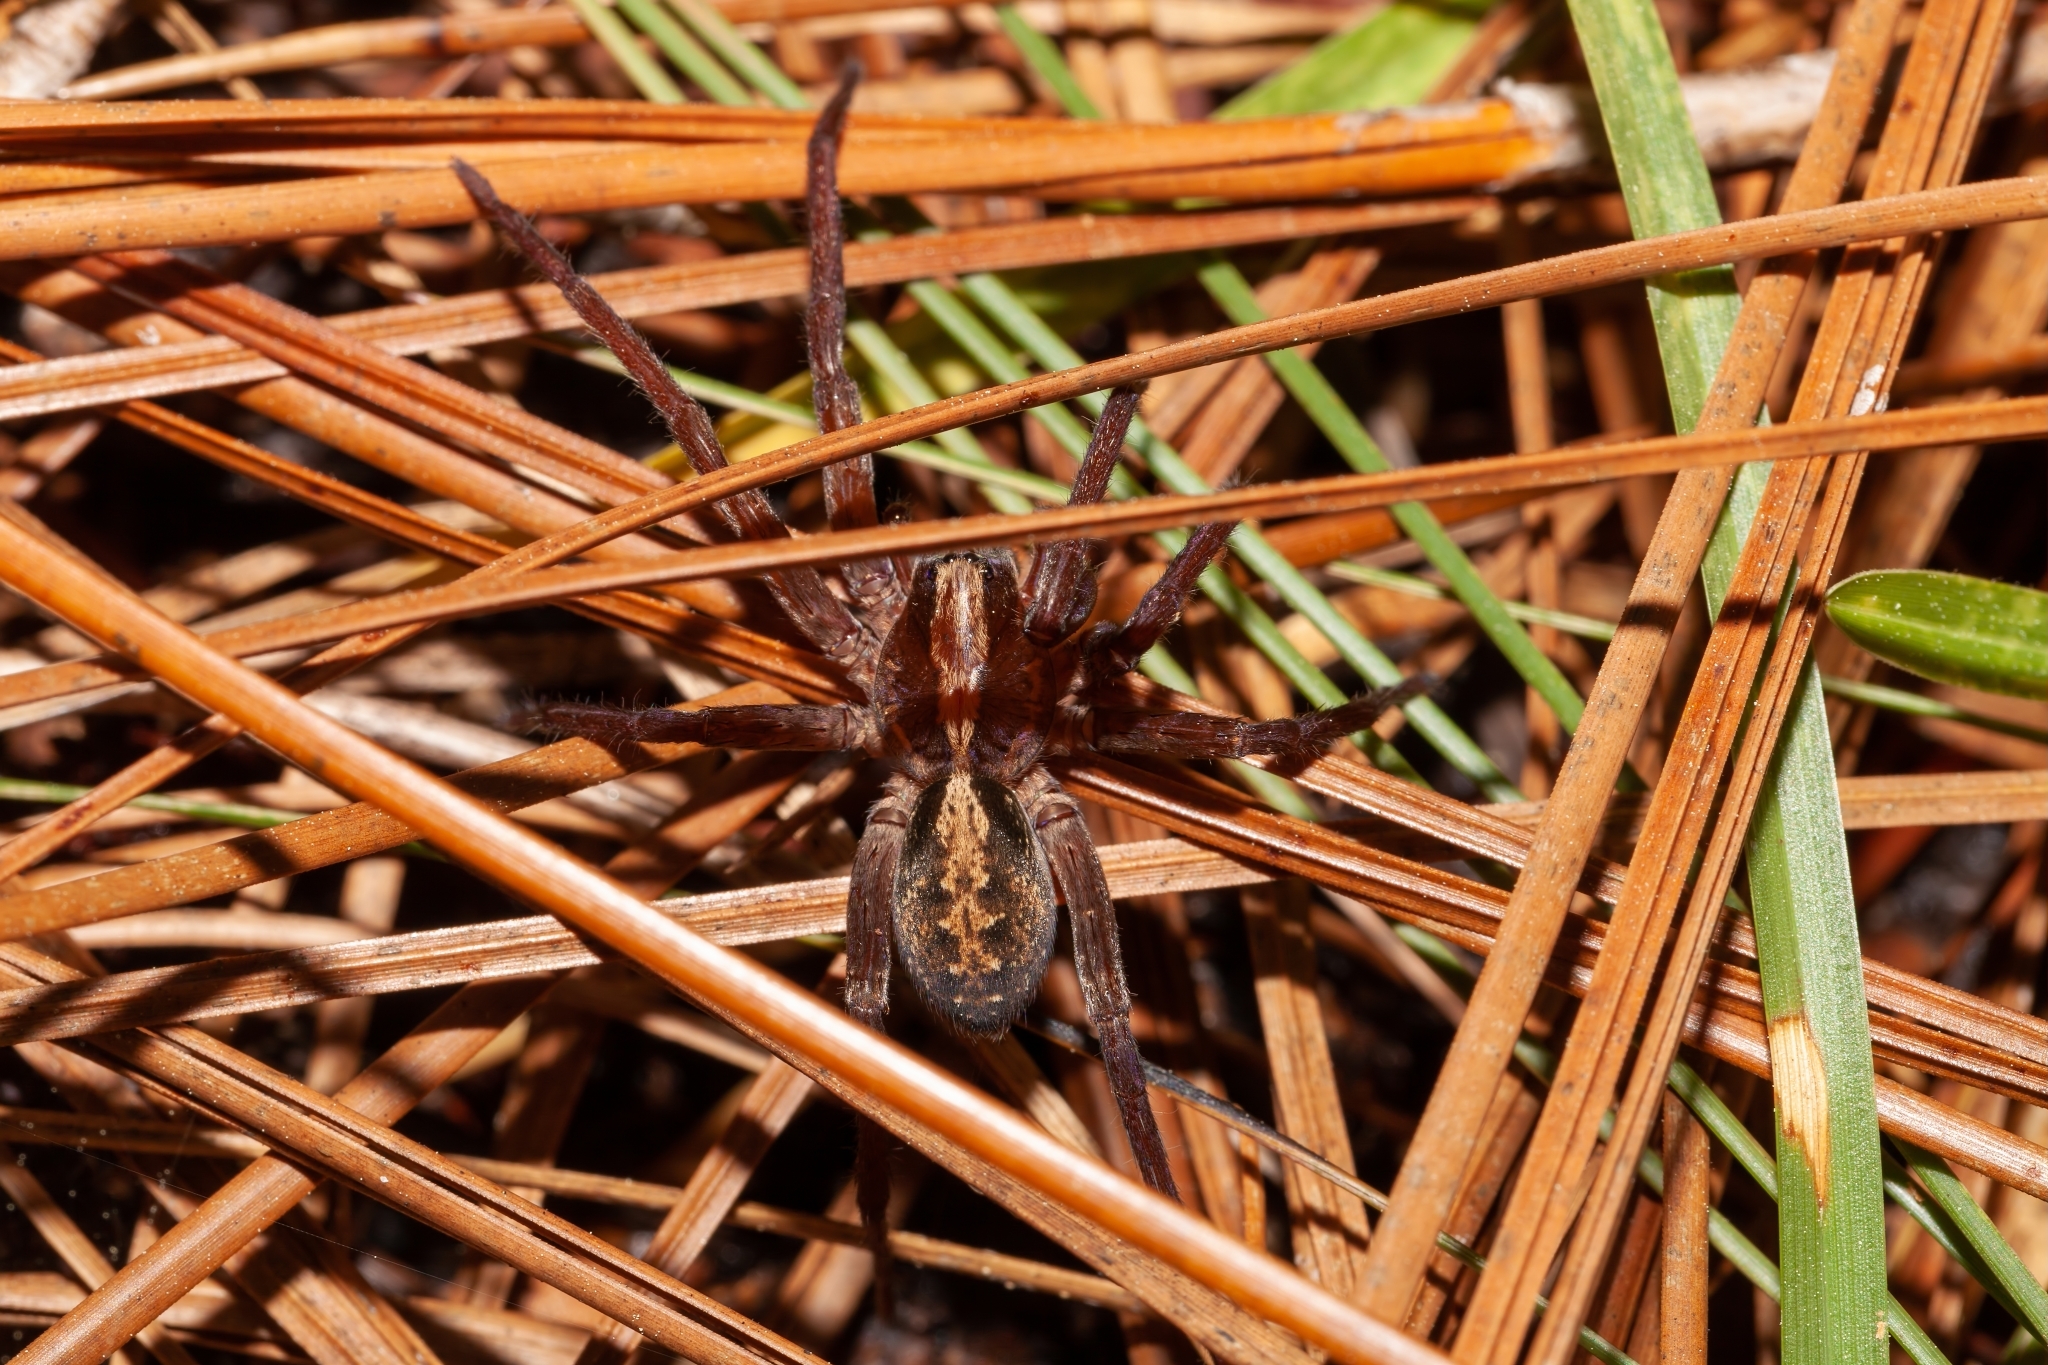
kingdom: Animalia
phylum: Arthropoda
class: Arachnida
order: Araneae
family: Ctenidae
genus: Ctenus
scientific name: Ctenus captiosus
